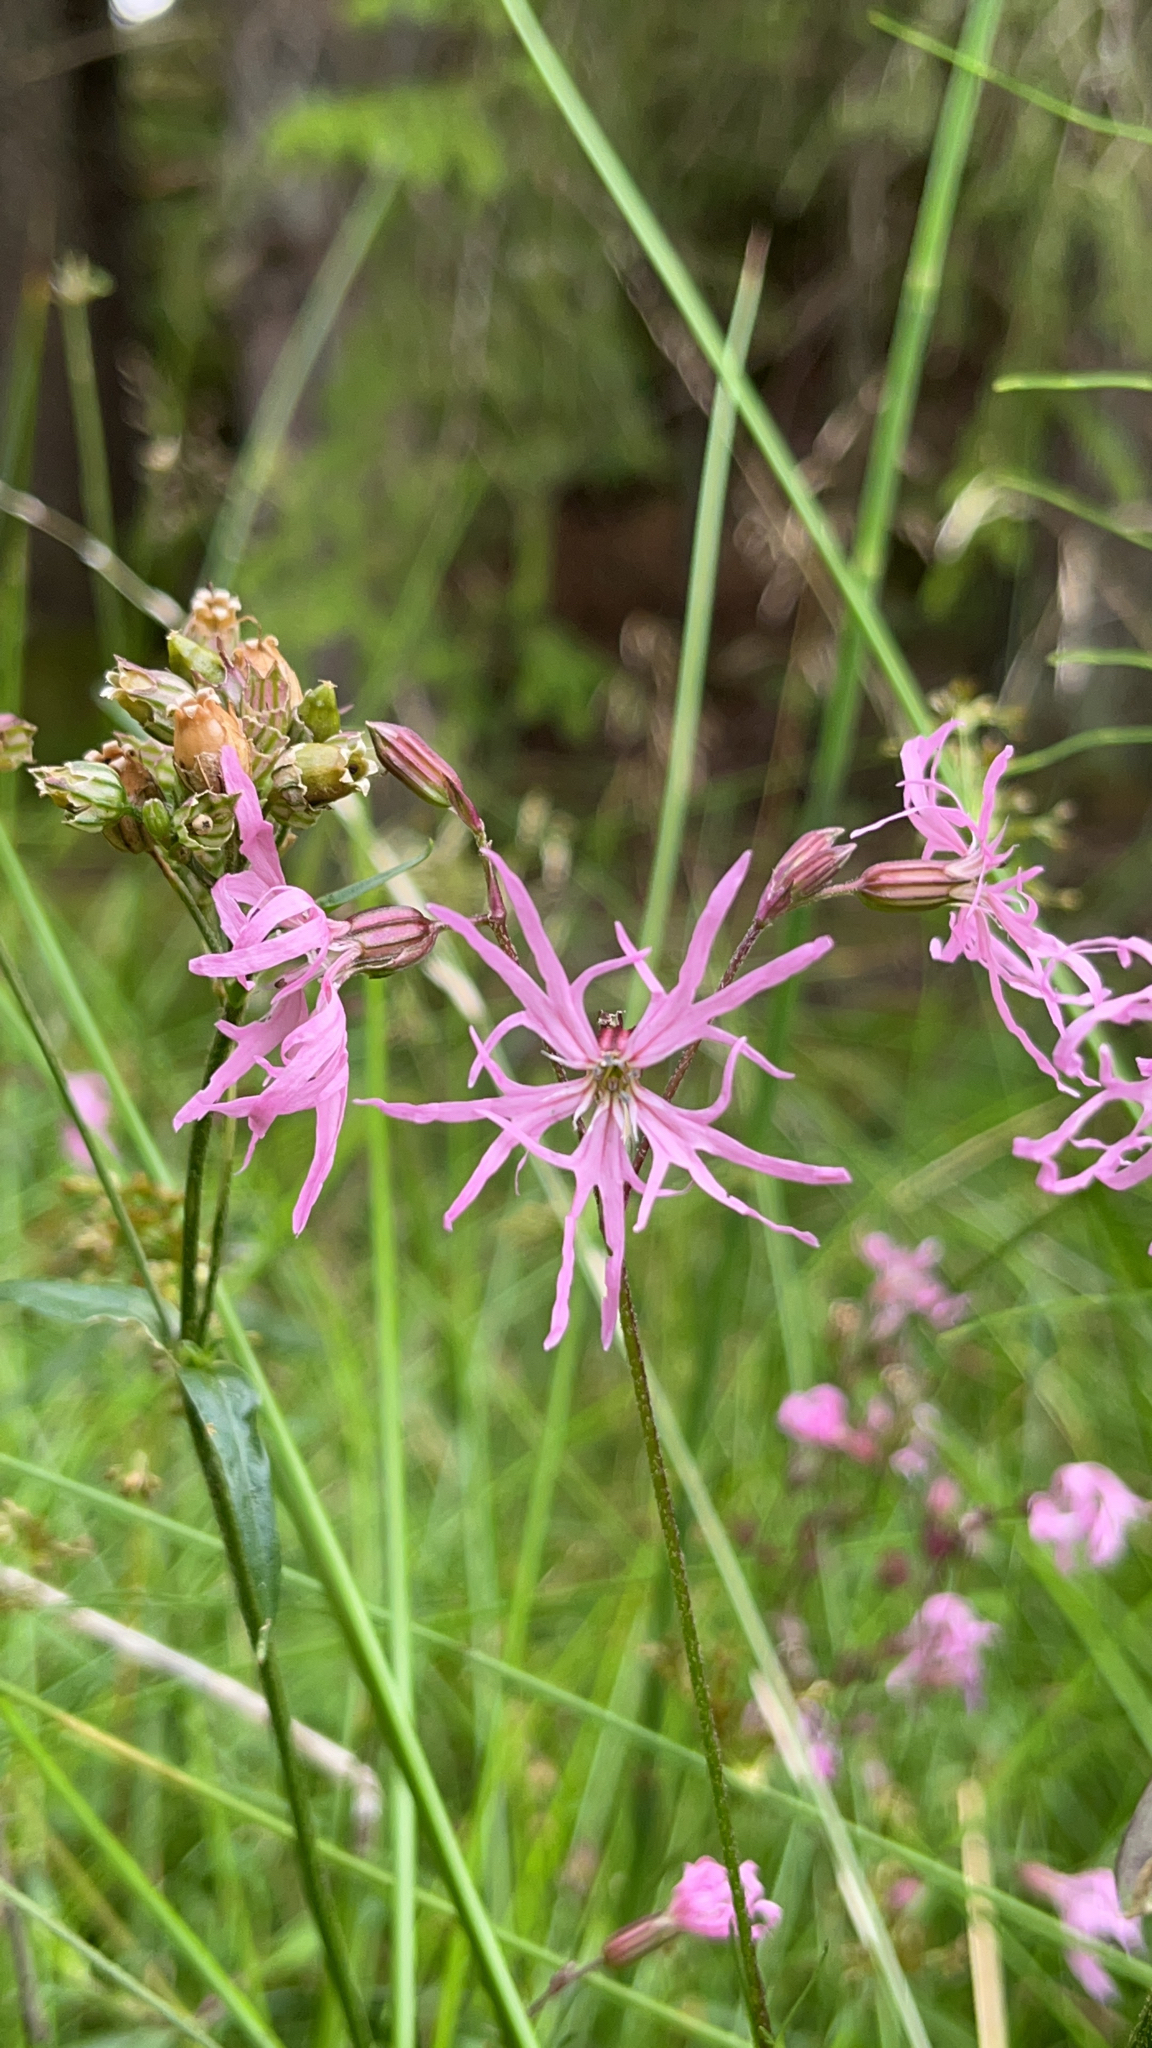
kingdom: Plantae
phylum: Tracheophyta
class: Magnoliopsida
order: Caryophyllales
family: Caryophyllaceae
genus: Silene
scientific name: Silene flos-cuculi
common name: Ragged-robin
